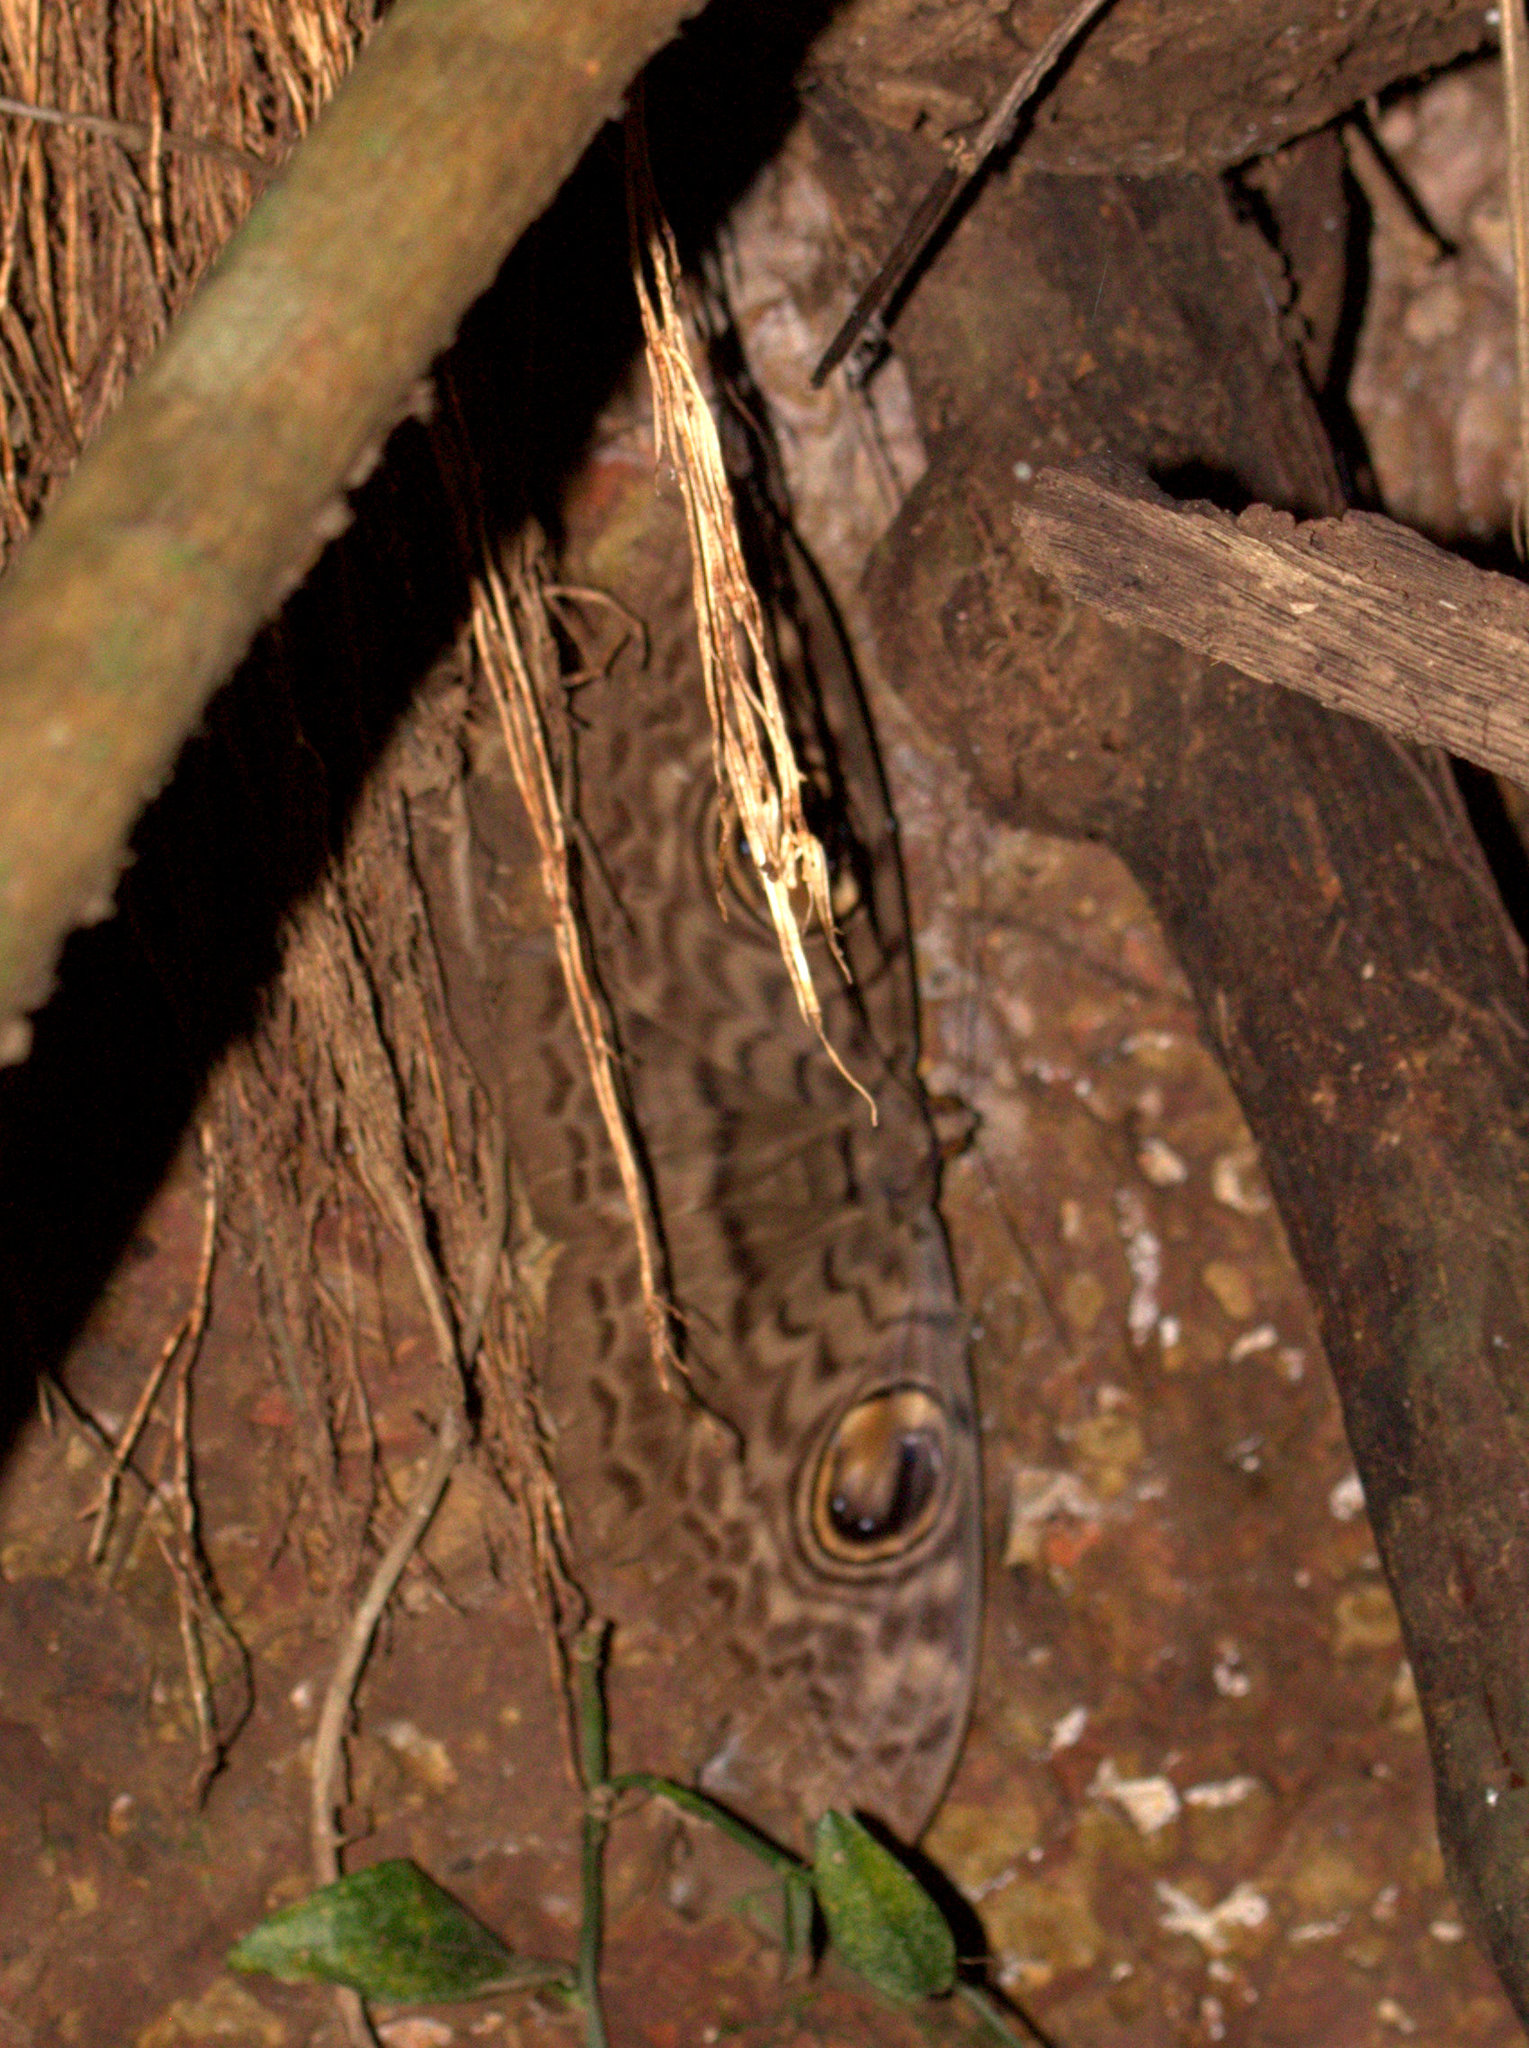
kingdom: Animalia
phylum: Arthropoda
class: Insecta
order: Lepidoptera
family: Erebidae
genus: Erebus
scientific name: Erebus macrops
